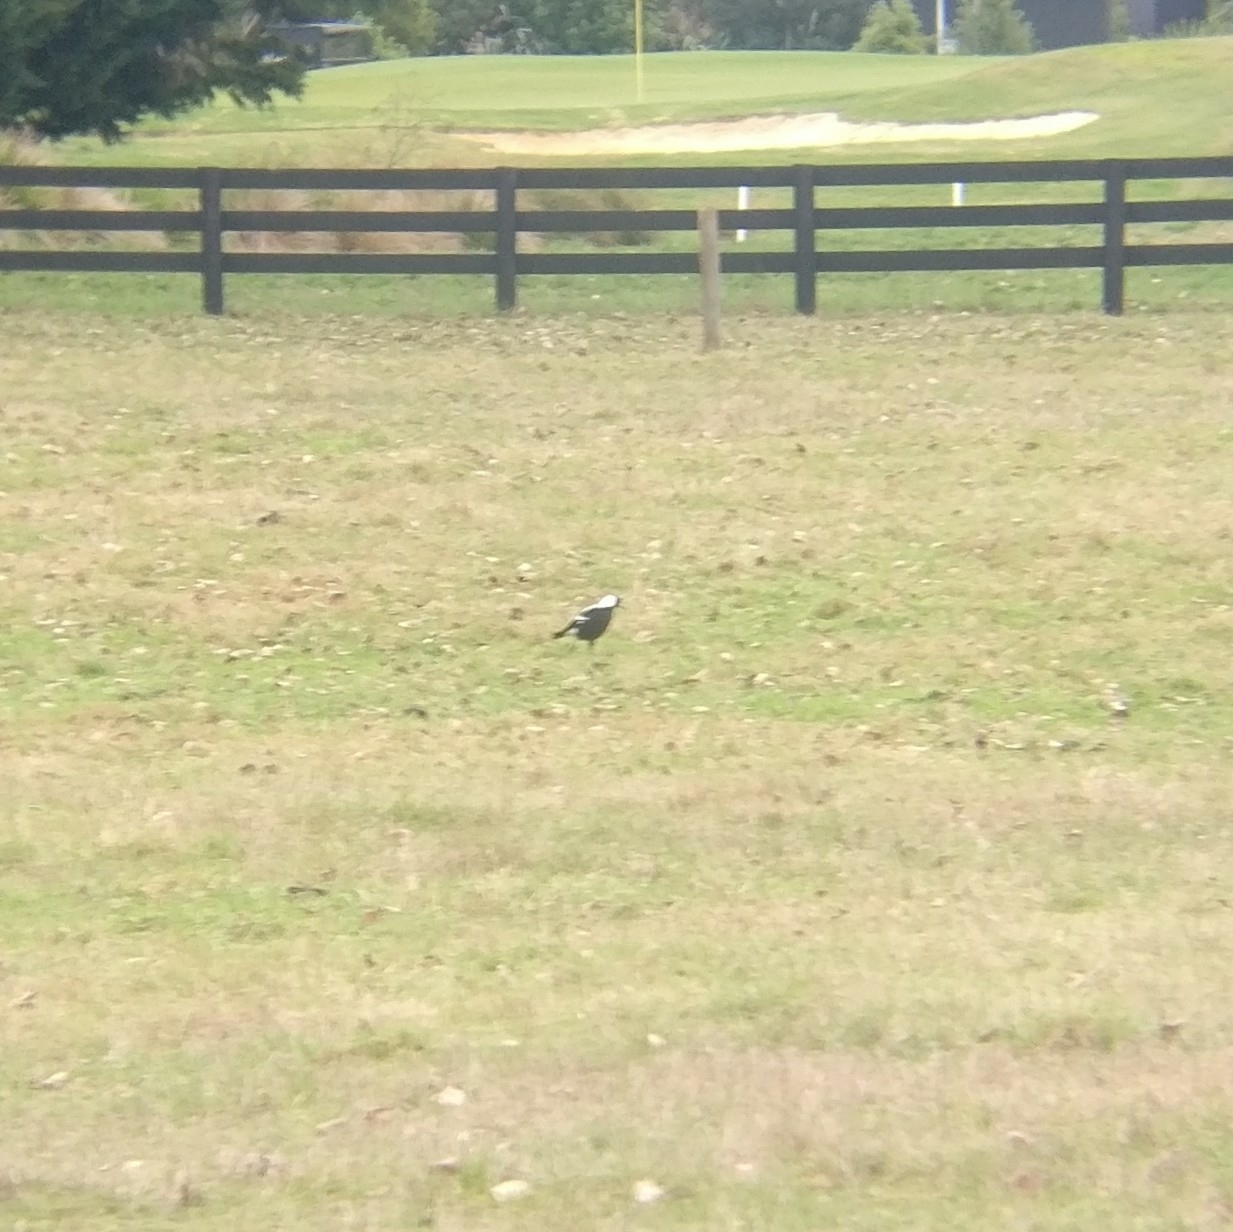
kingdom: Animalia
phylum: Chordata
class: Aves
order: Passeriformes
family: Cracticidae
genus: Gymnorhina
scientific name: Gymnorhina tibicen
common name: Australian magpie
